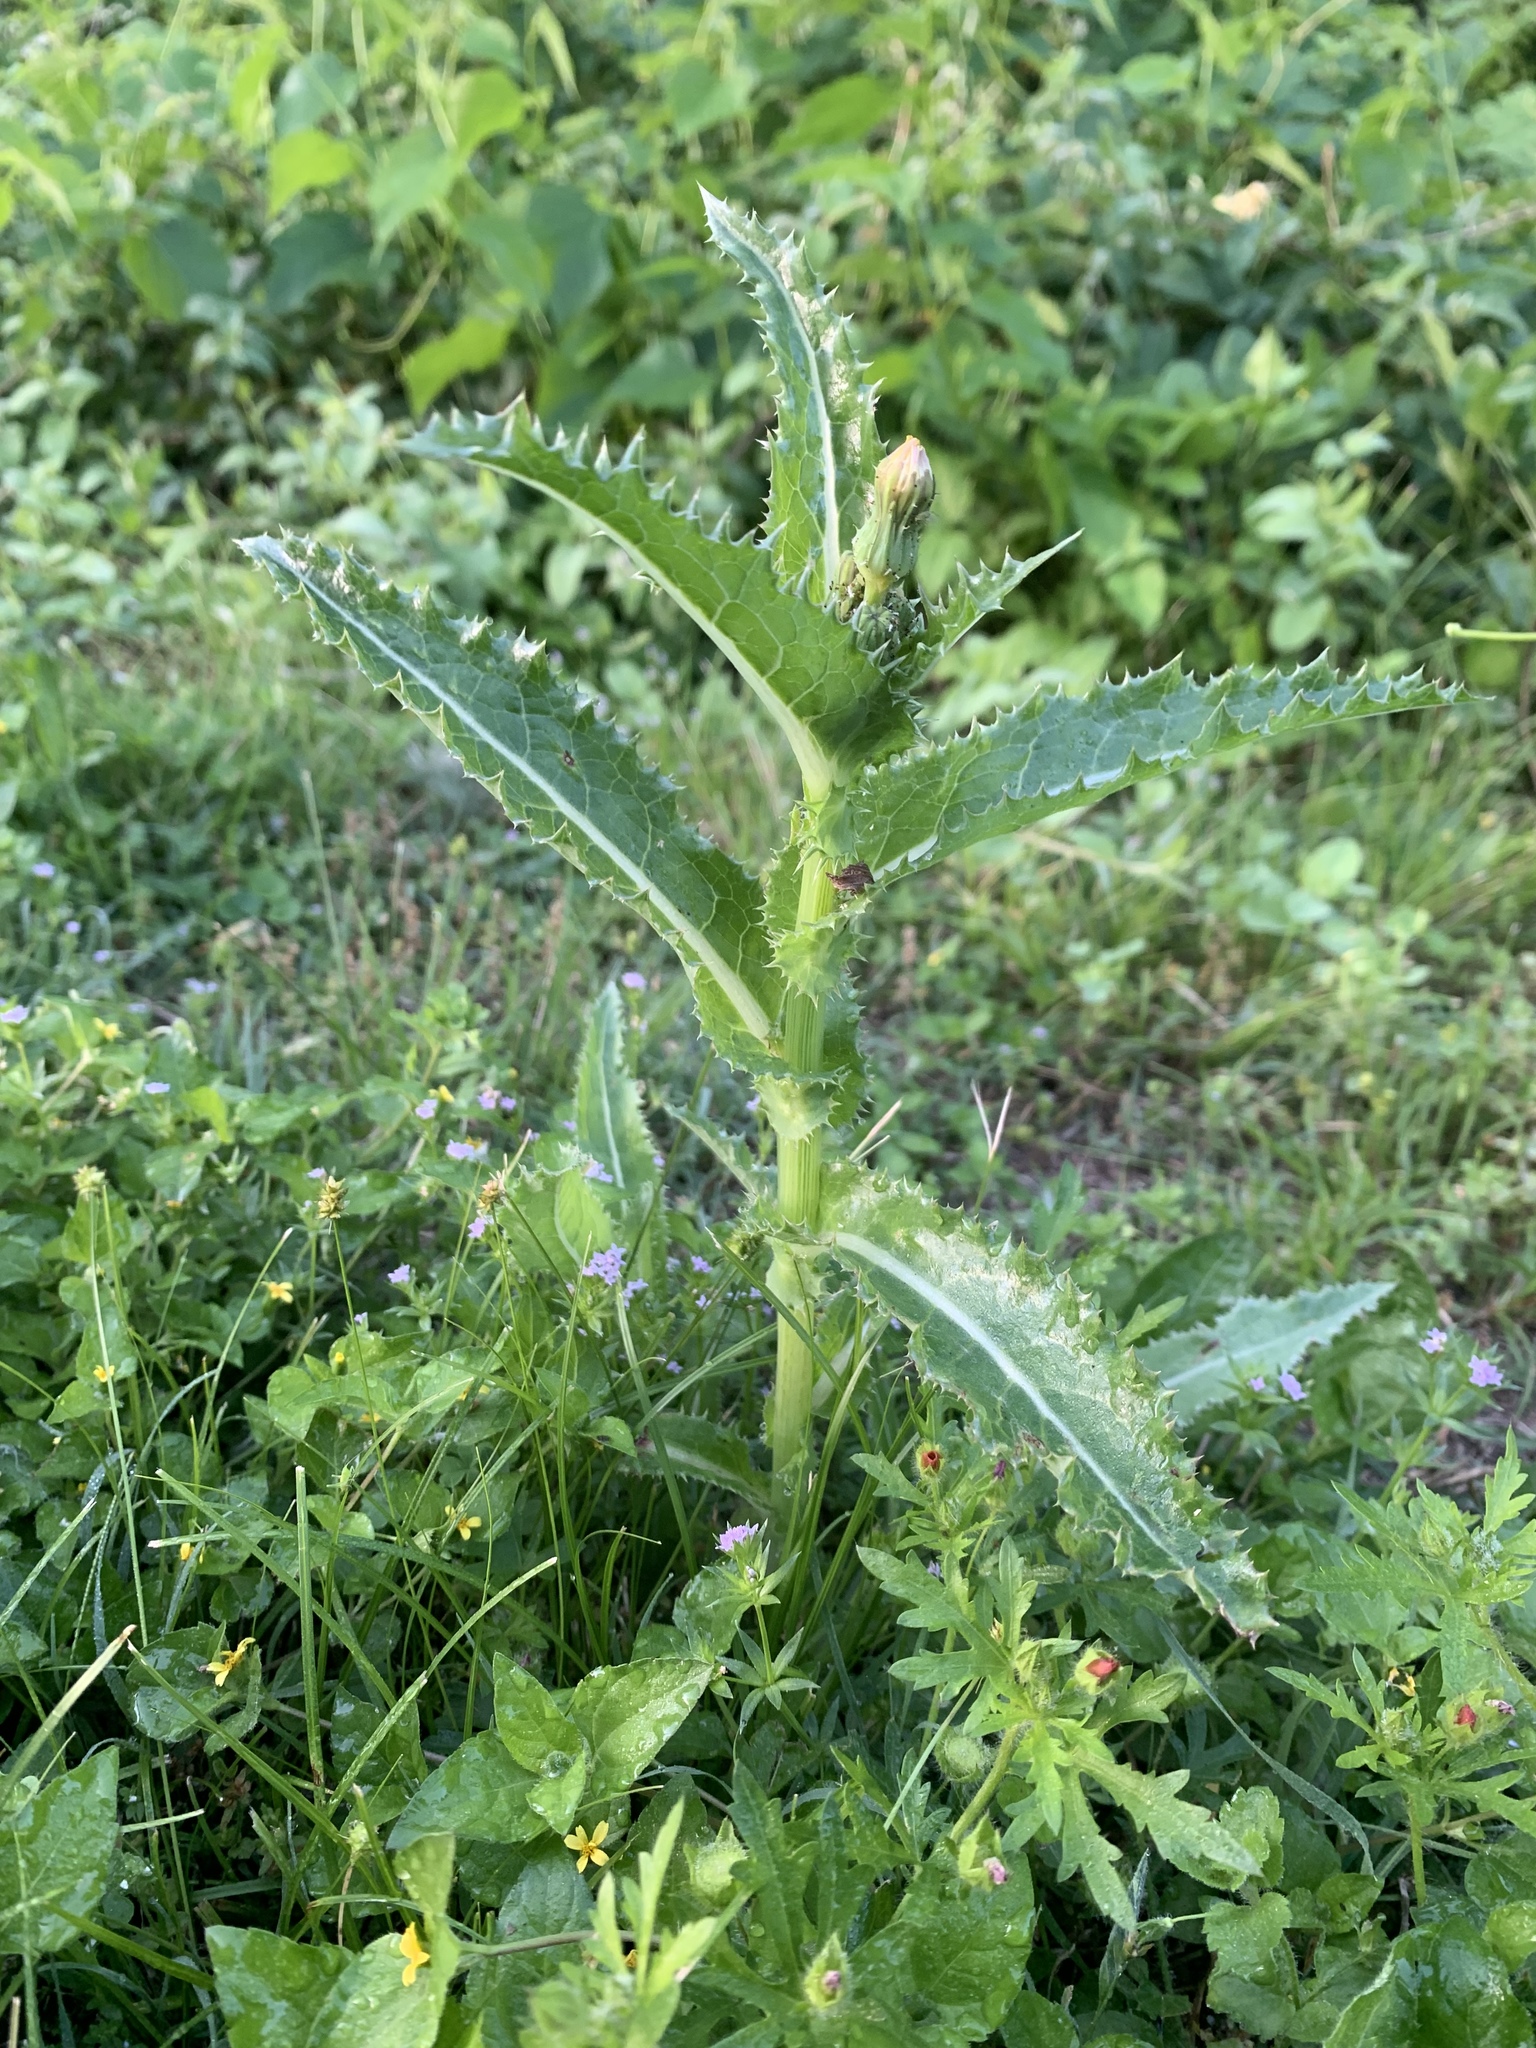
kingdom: Plantae
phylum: Tracheophyta
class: Magnoliopsida
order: Asterales
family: Asteraceae
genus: Sonchus
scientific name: Sonchus asper
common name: Prickly sow-thistle
